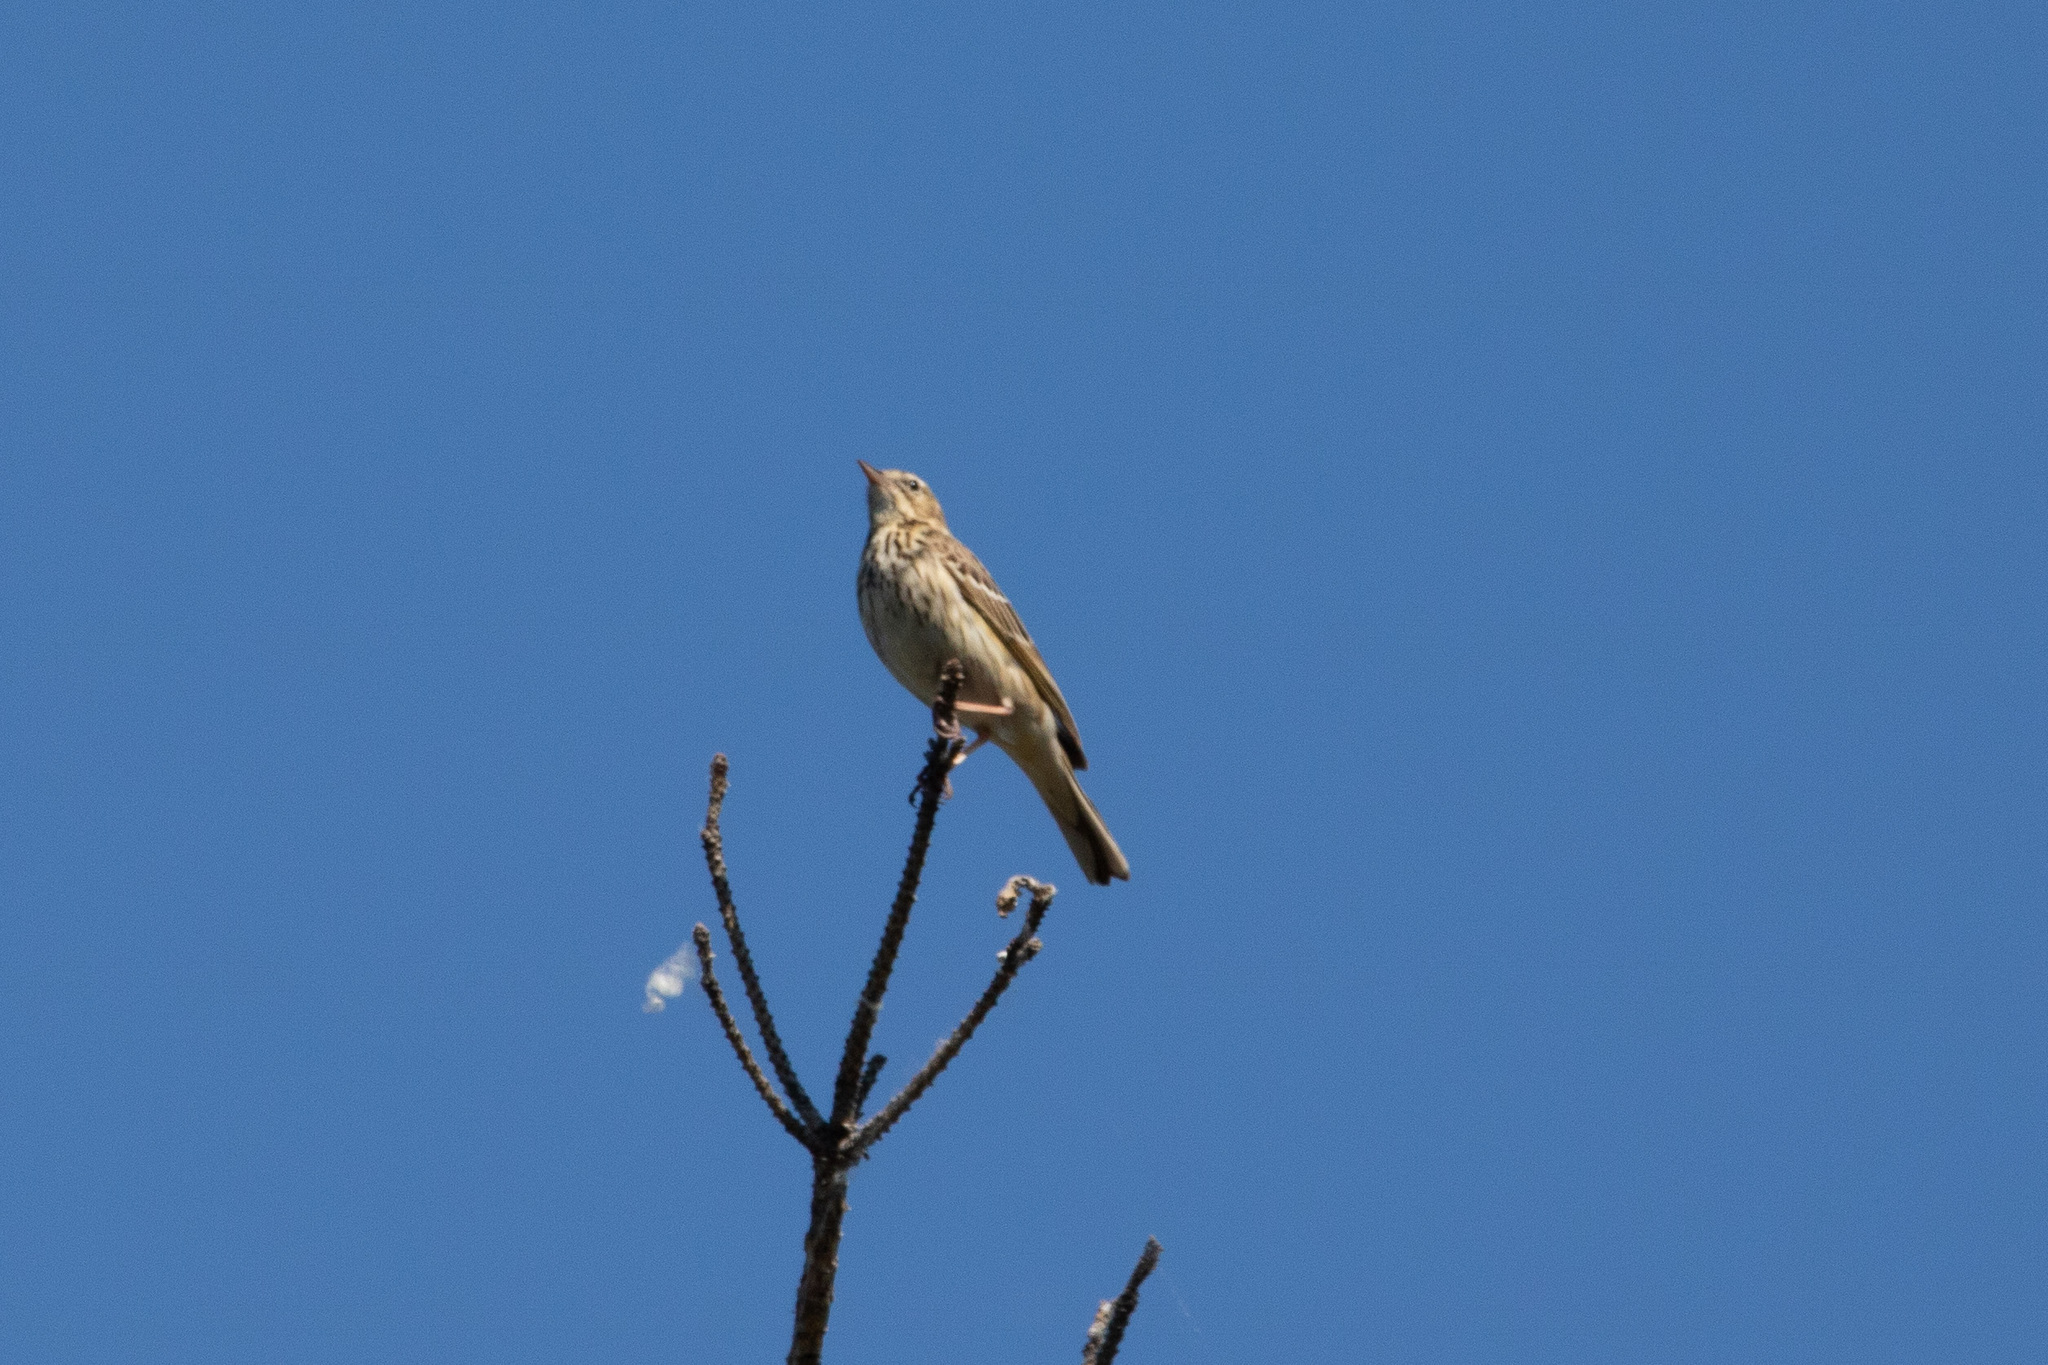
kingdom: Animalia
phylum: Chordata
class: Aves
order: Passeriformes
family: Motacillidae
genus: Anthus
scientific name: Anthus trivialis
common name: Tree pipit
